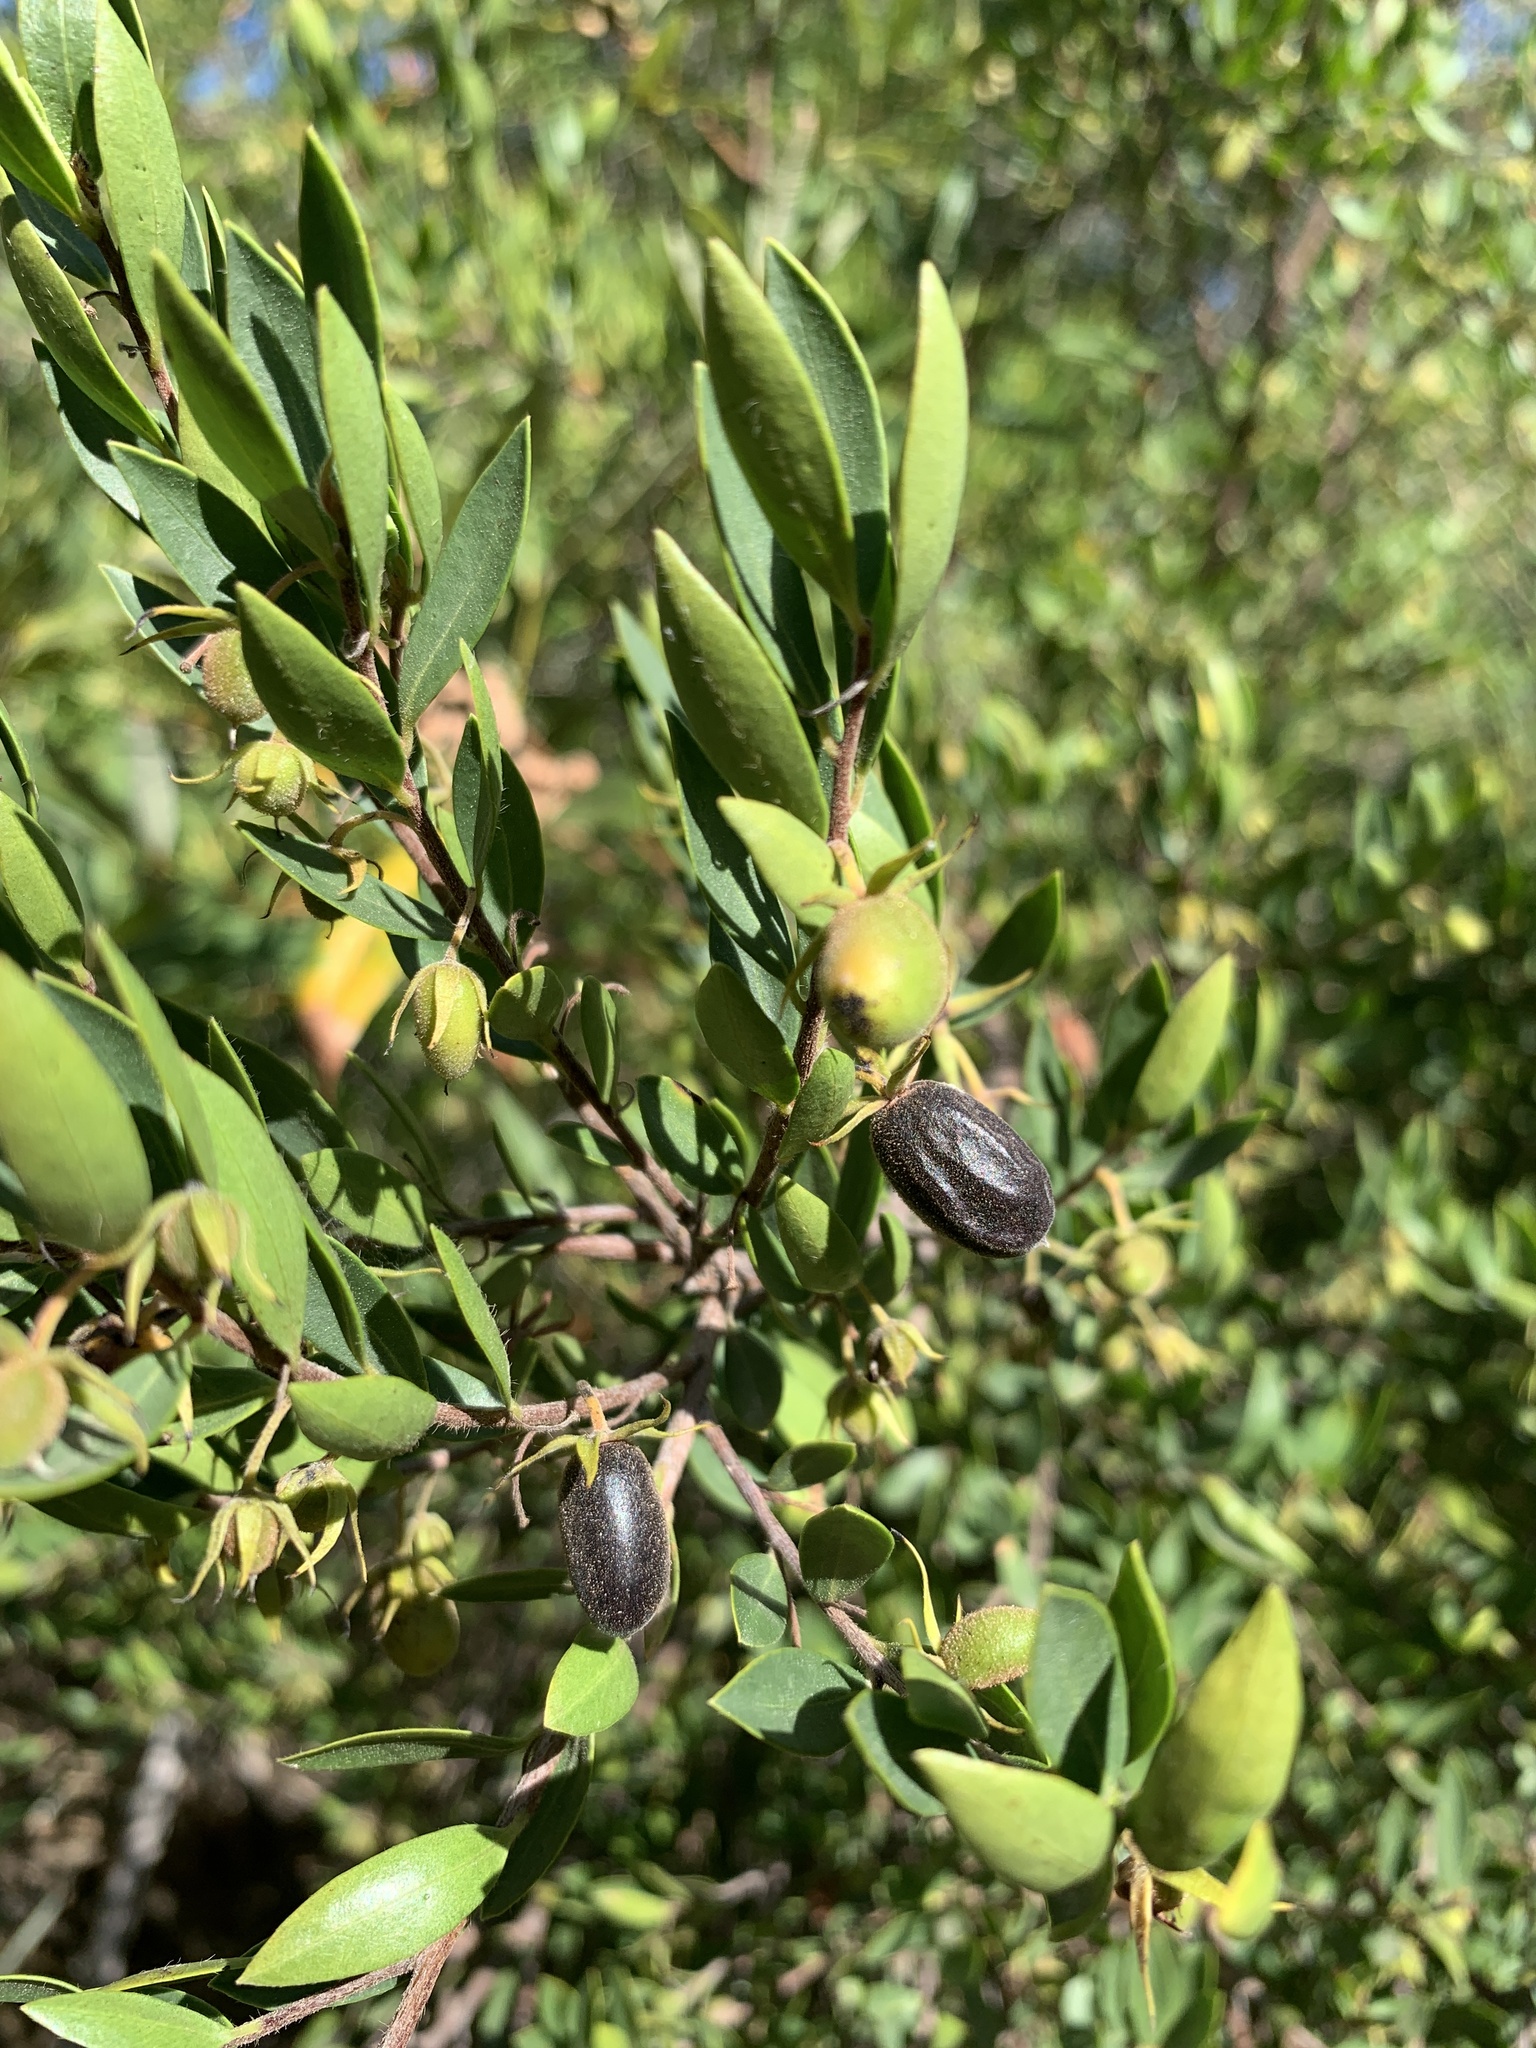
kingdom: Plantae
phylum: Tracheophyta
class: Magnoliopsida
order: Ericales
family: Ebenaceae
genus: Diospyros
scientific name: Diospyros glabra
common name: Fynbos star apple
